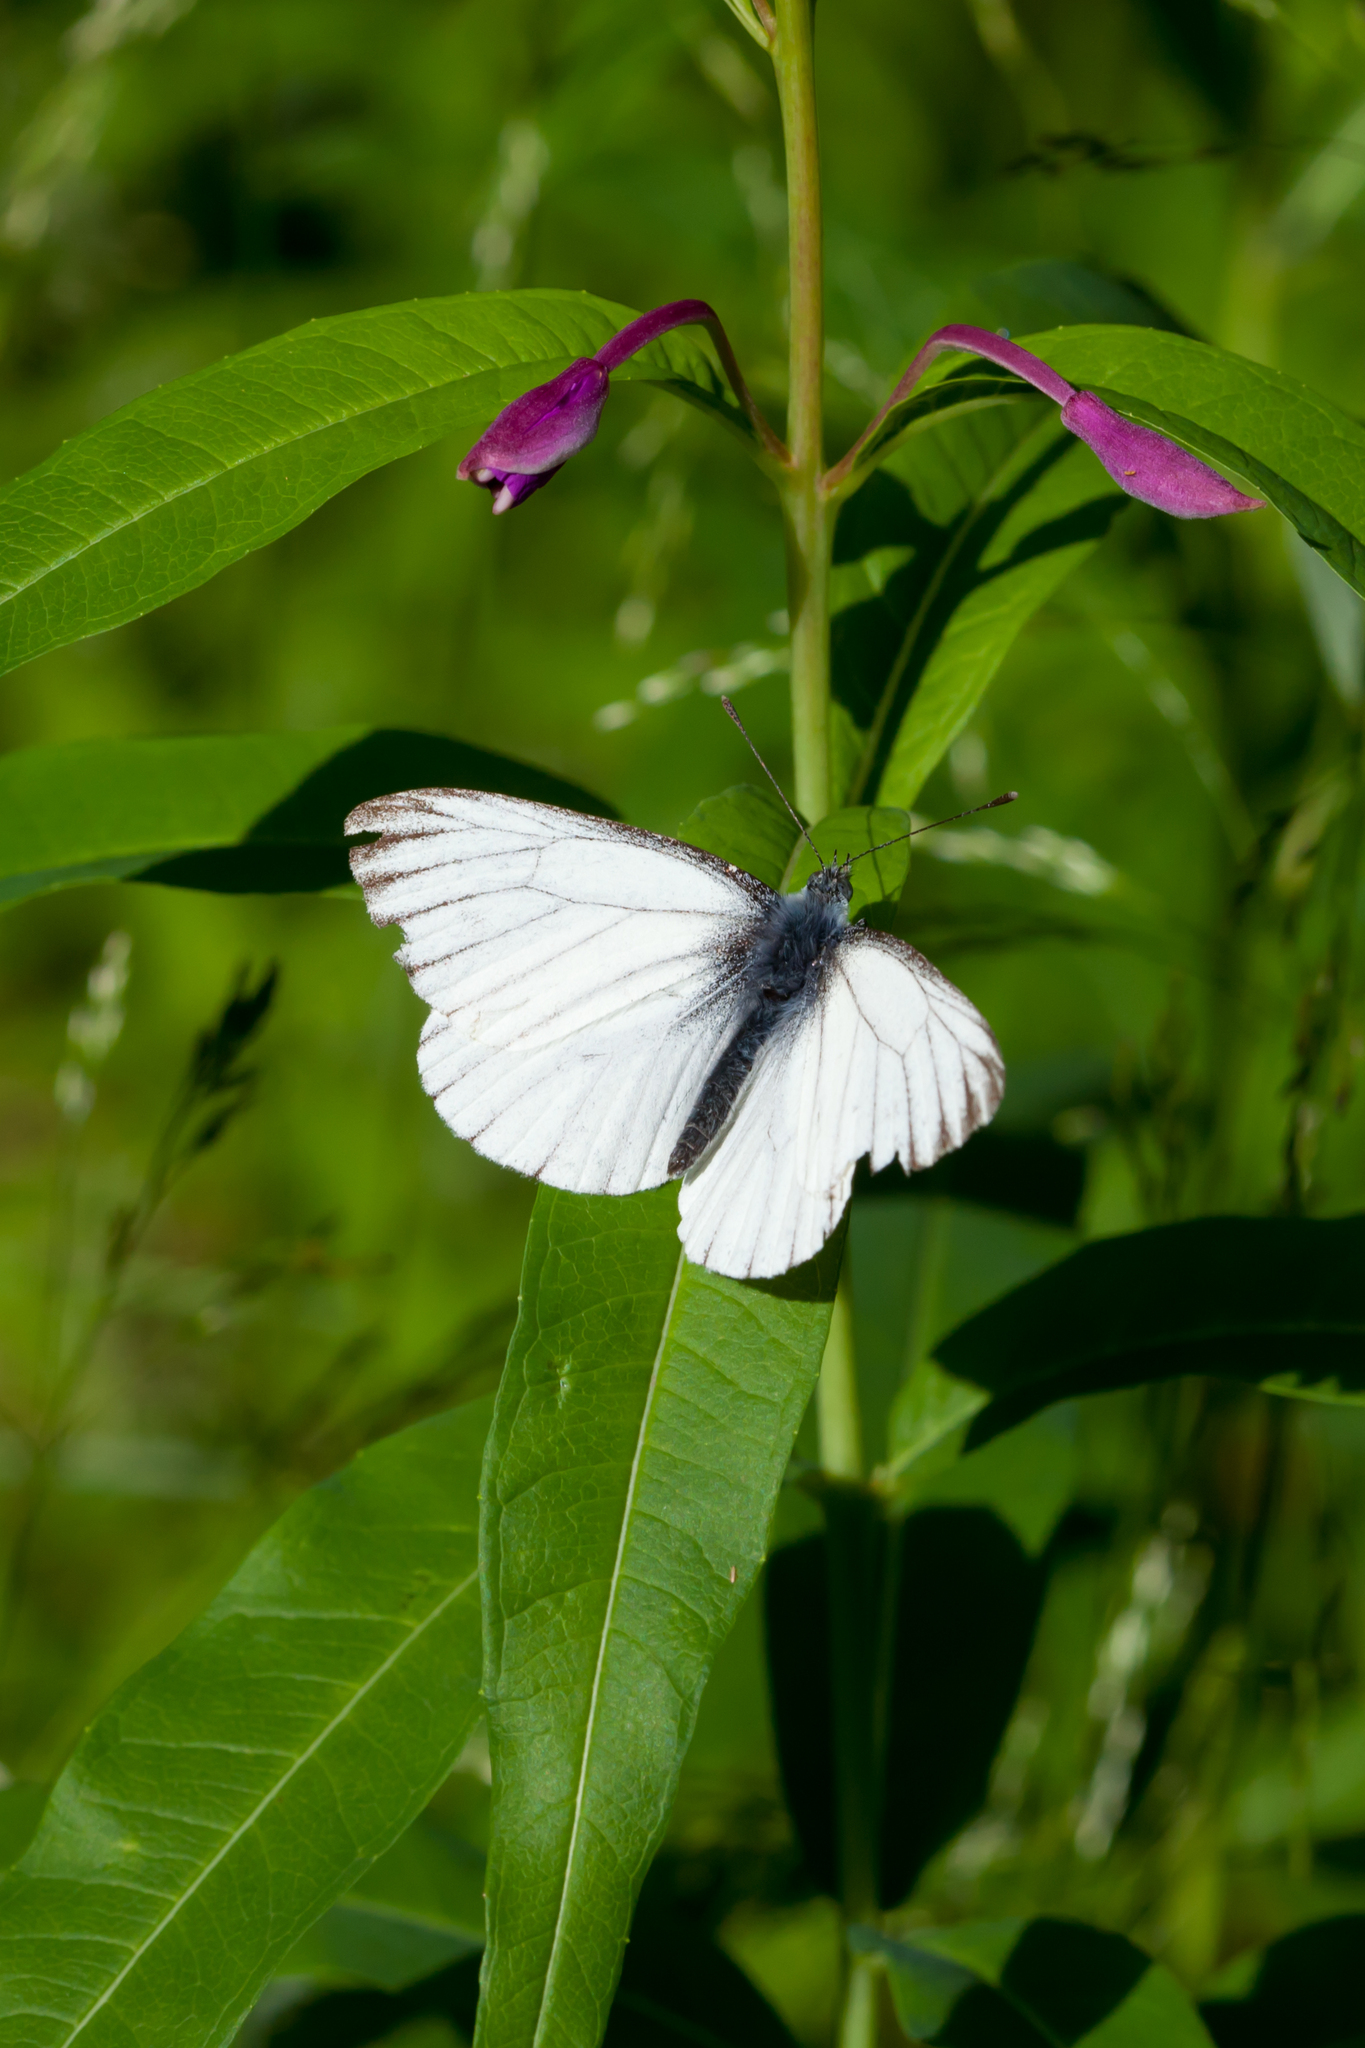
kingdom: Animalia
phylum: Arthropoda
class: Insecta
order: Lepidoptera
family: Pieridae
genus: Pieris
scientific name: Pieris napi
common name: Green-veined white
